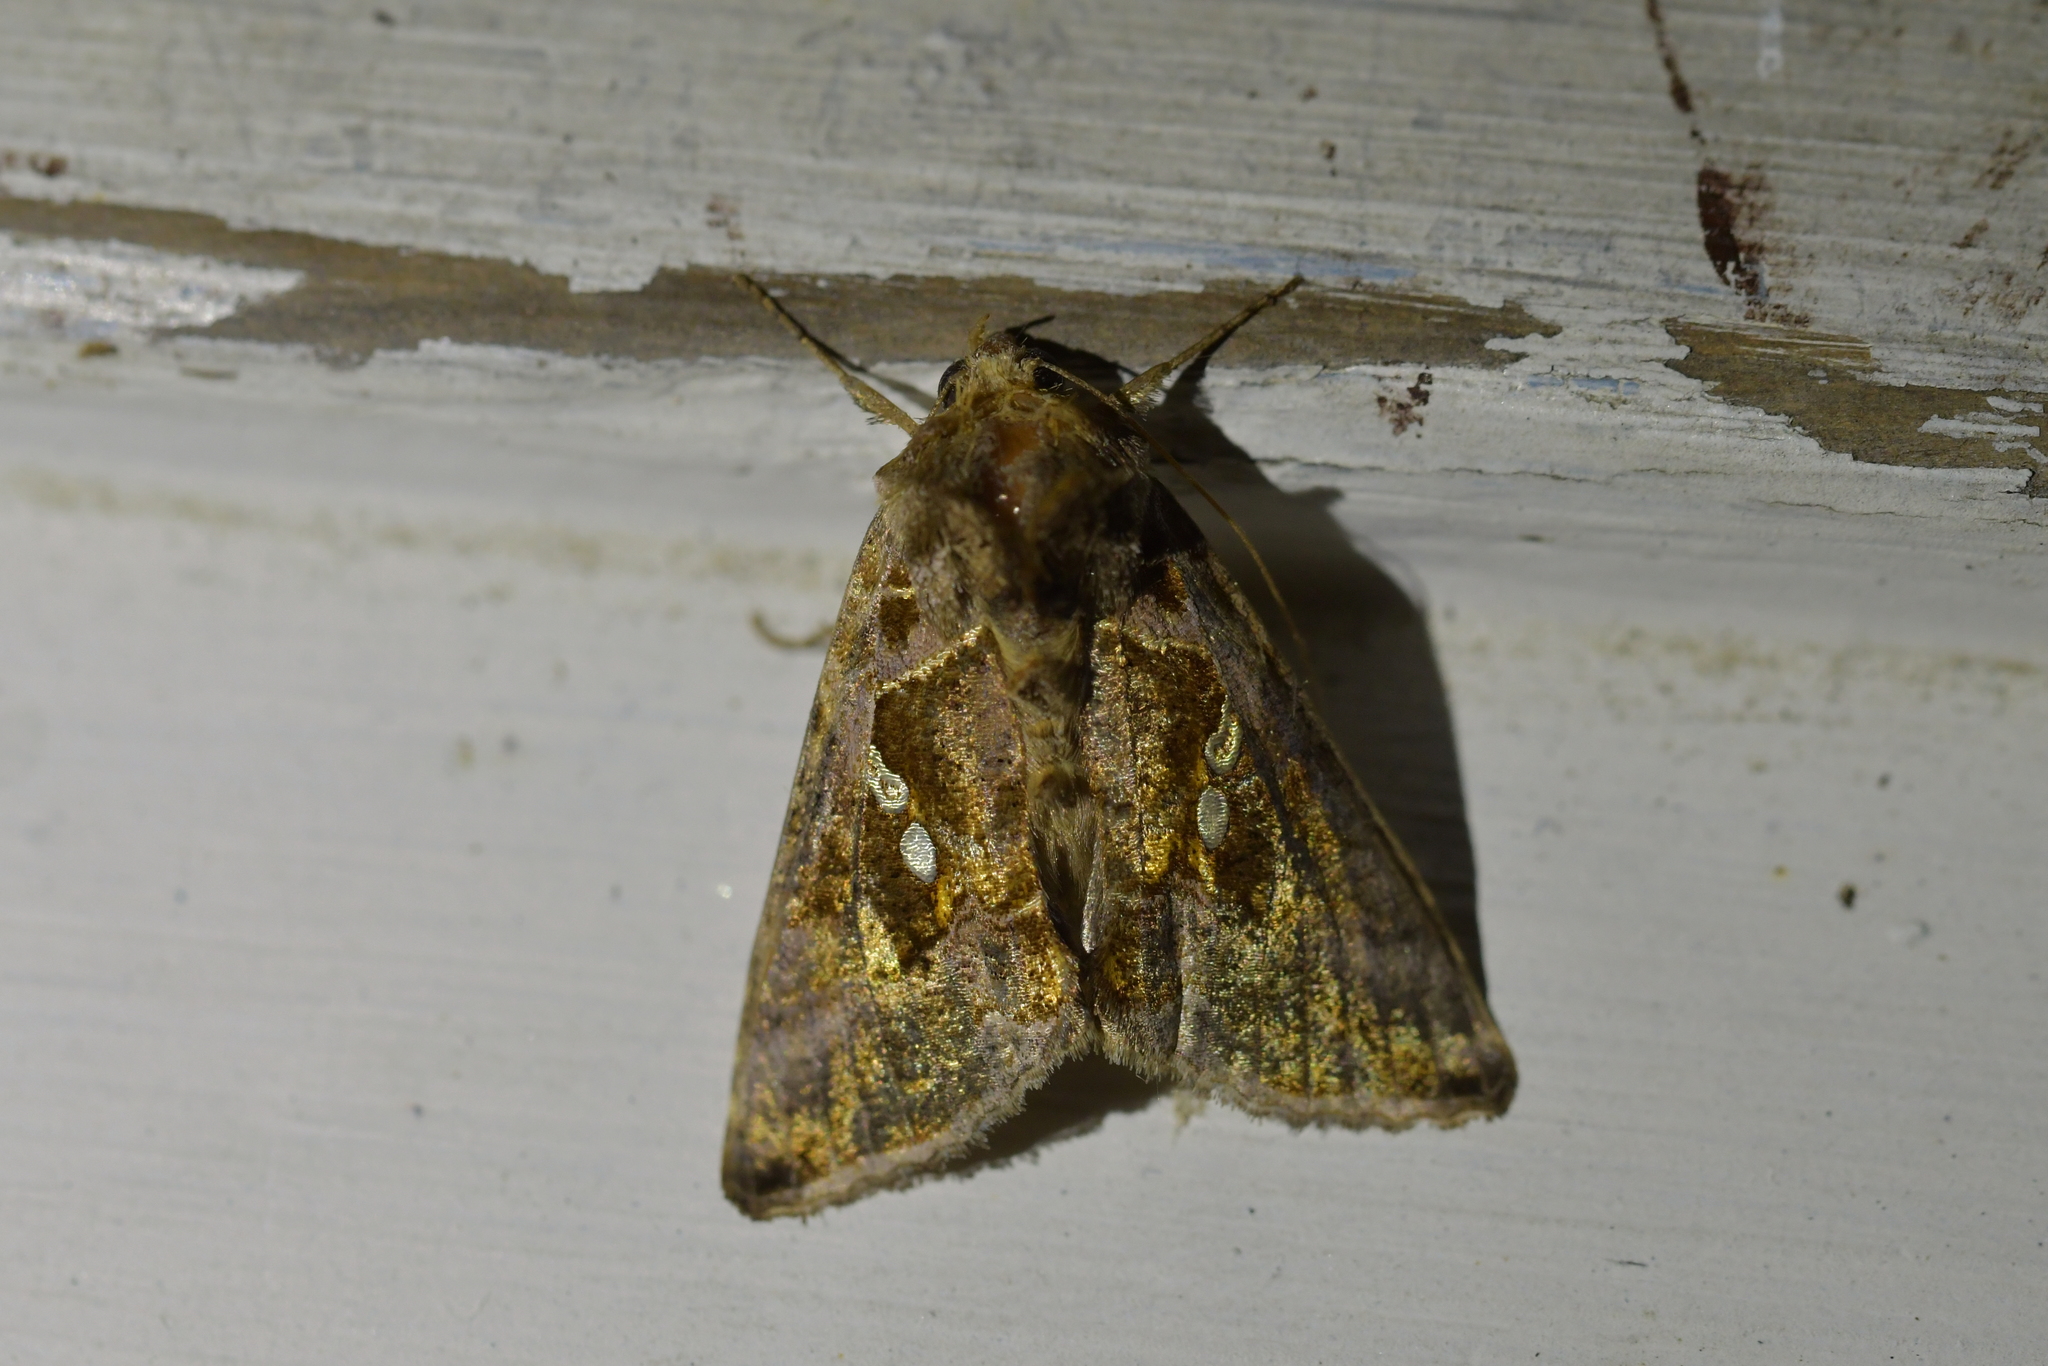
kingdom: Animalia
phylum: Arthropoda
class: Insecta
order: Lepidoptera
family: Noctuidae
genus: Chrysodeixis
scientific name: Chrysodeixis eriosoma
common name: Green garden looper
